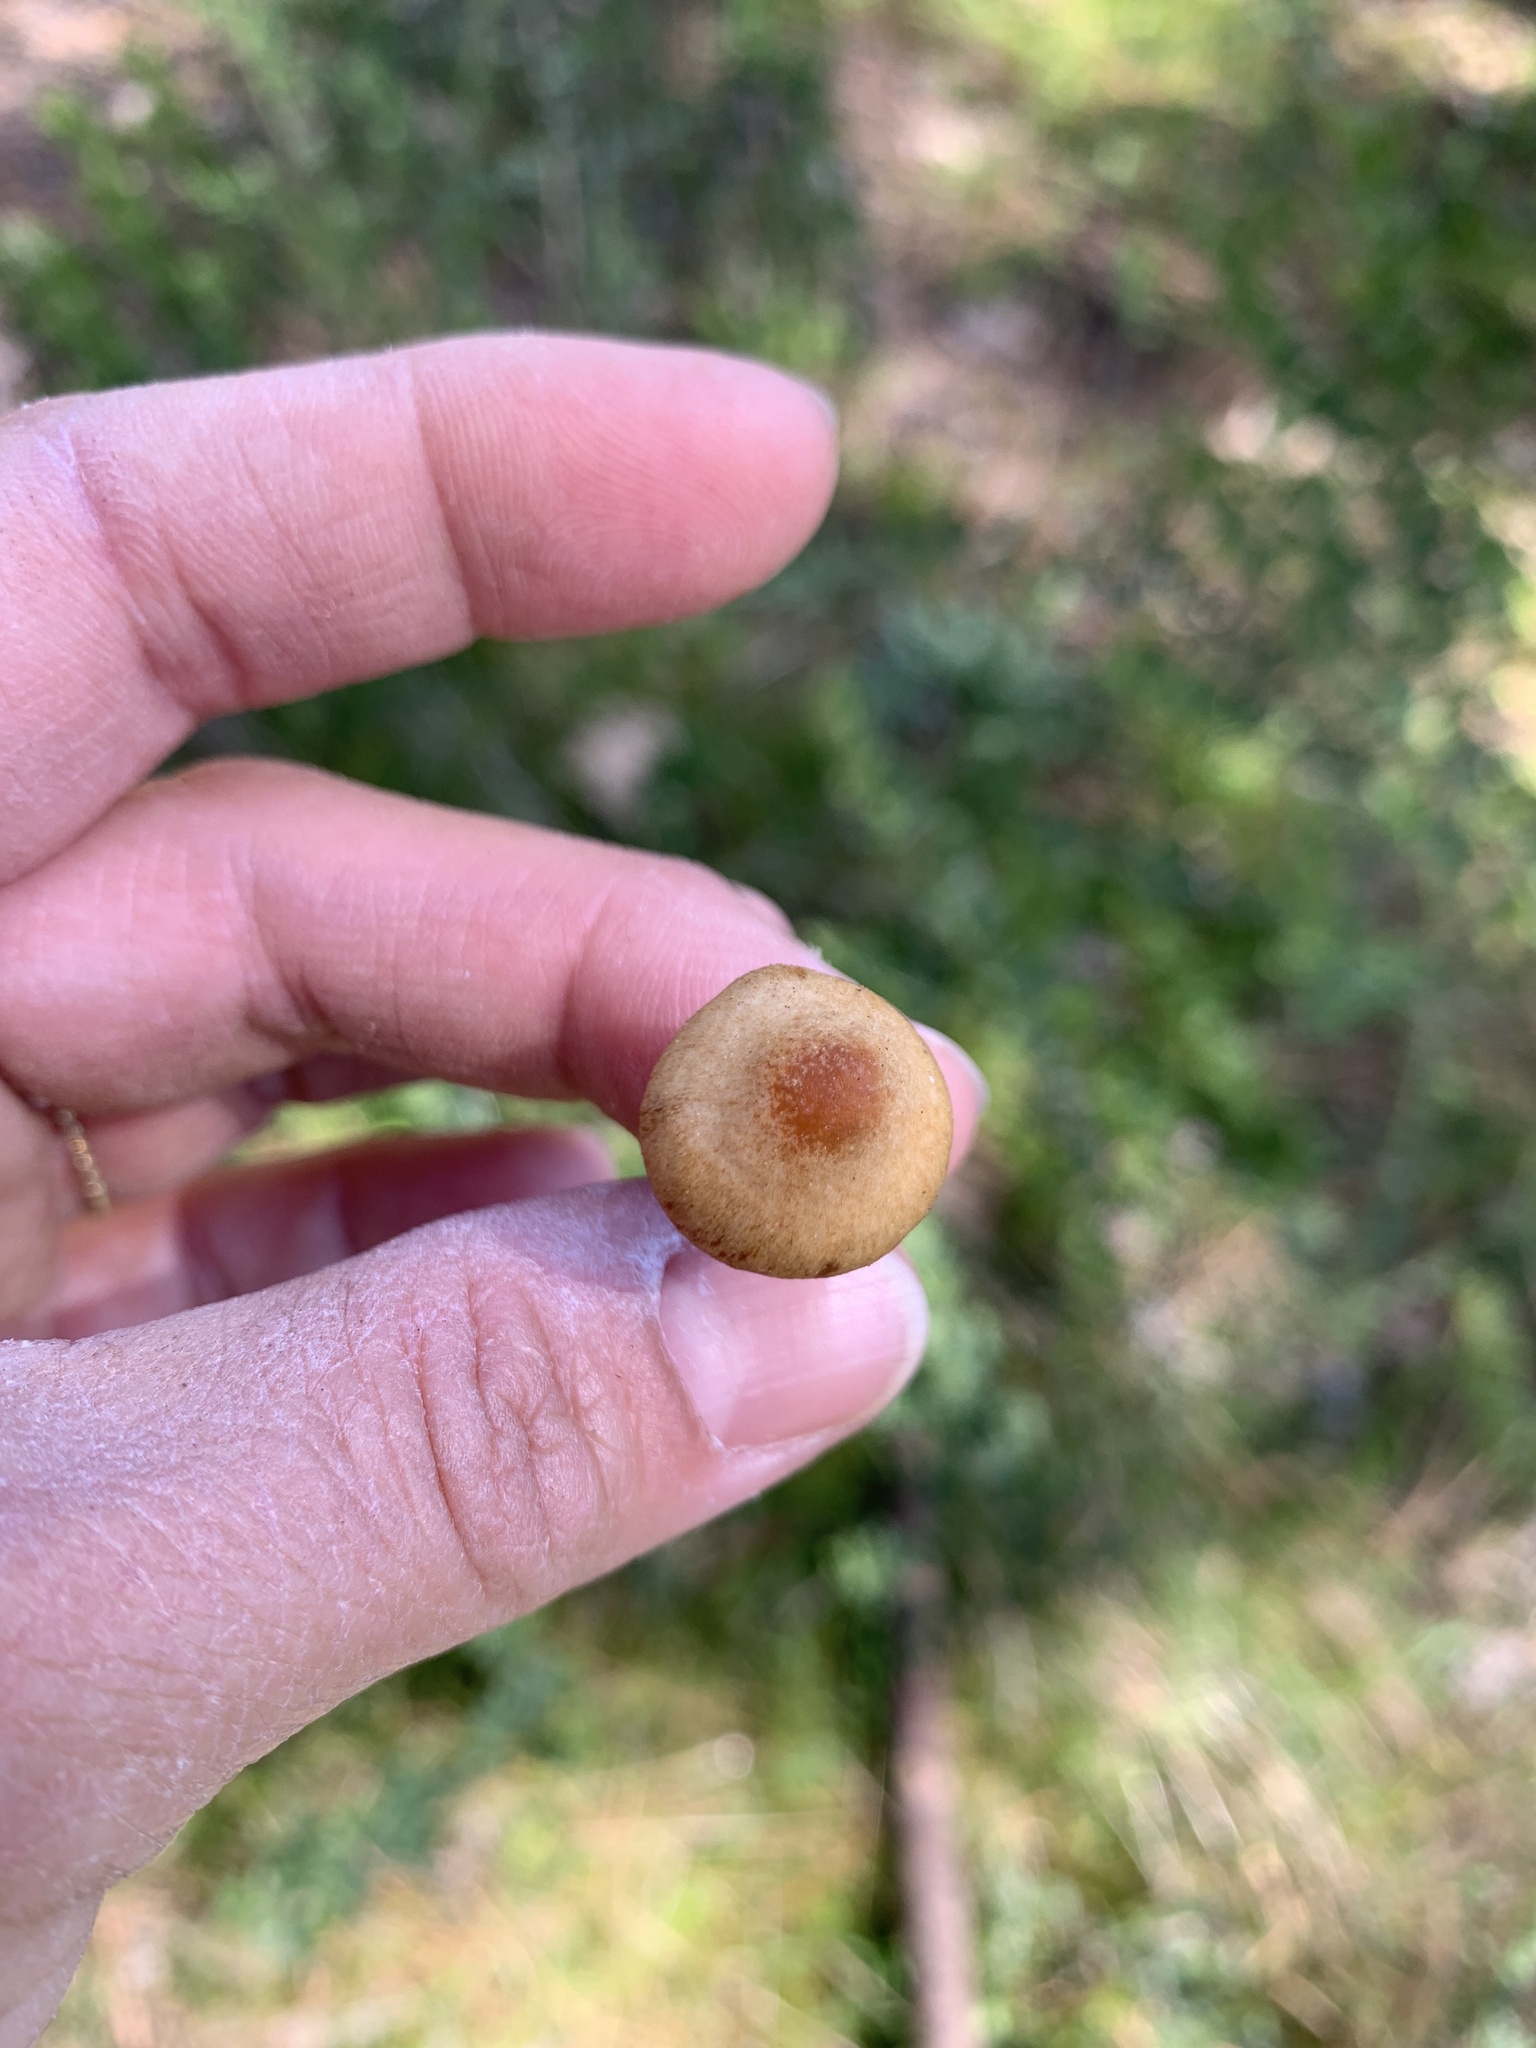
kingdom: Fungi
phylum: Basidiomycota
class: Agaricomycetes
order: Agaricales
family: Hymenogastraceae
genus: Galerina
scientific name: Galerina badipes
